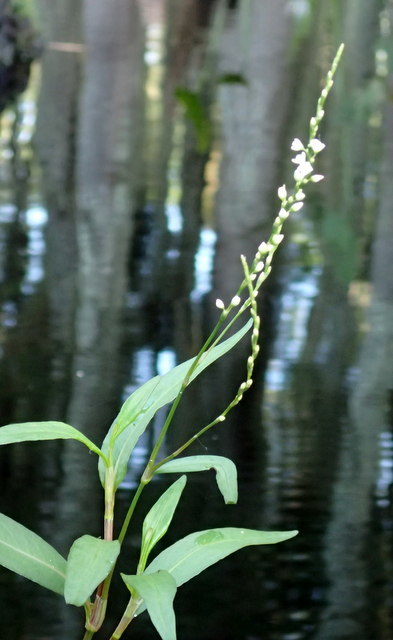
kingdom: Plantae
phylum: Tracheophyta
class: Magnoliopsida
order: Caryophyllales
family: Polygonaceae
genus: Persicaria
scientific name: Persicaria hydropiperoides
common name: Swamp smartweed
